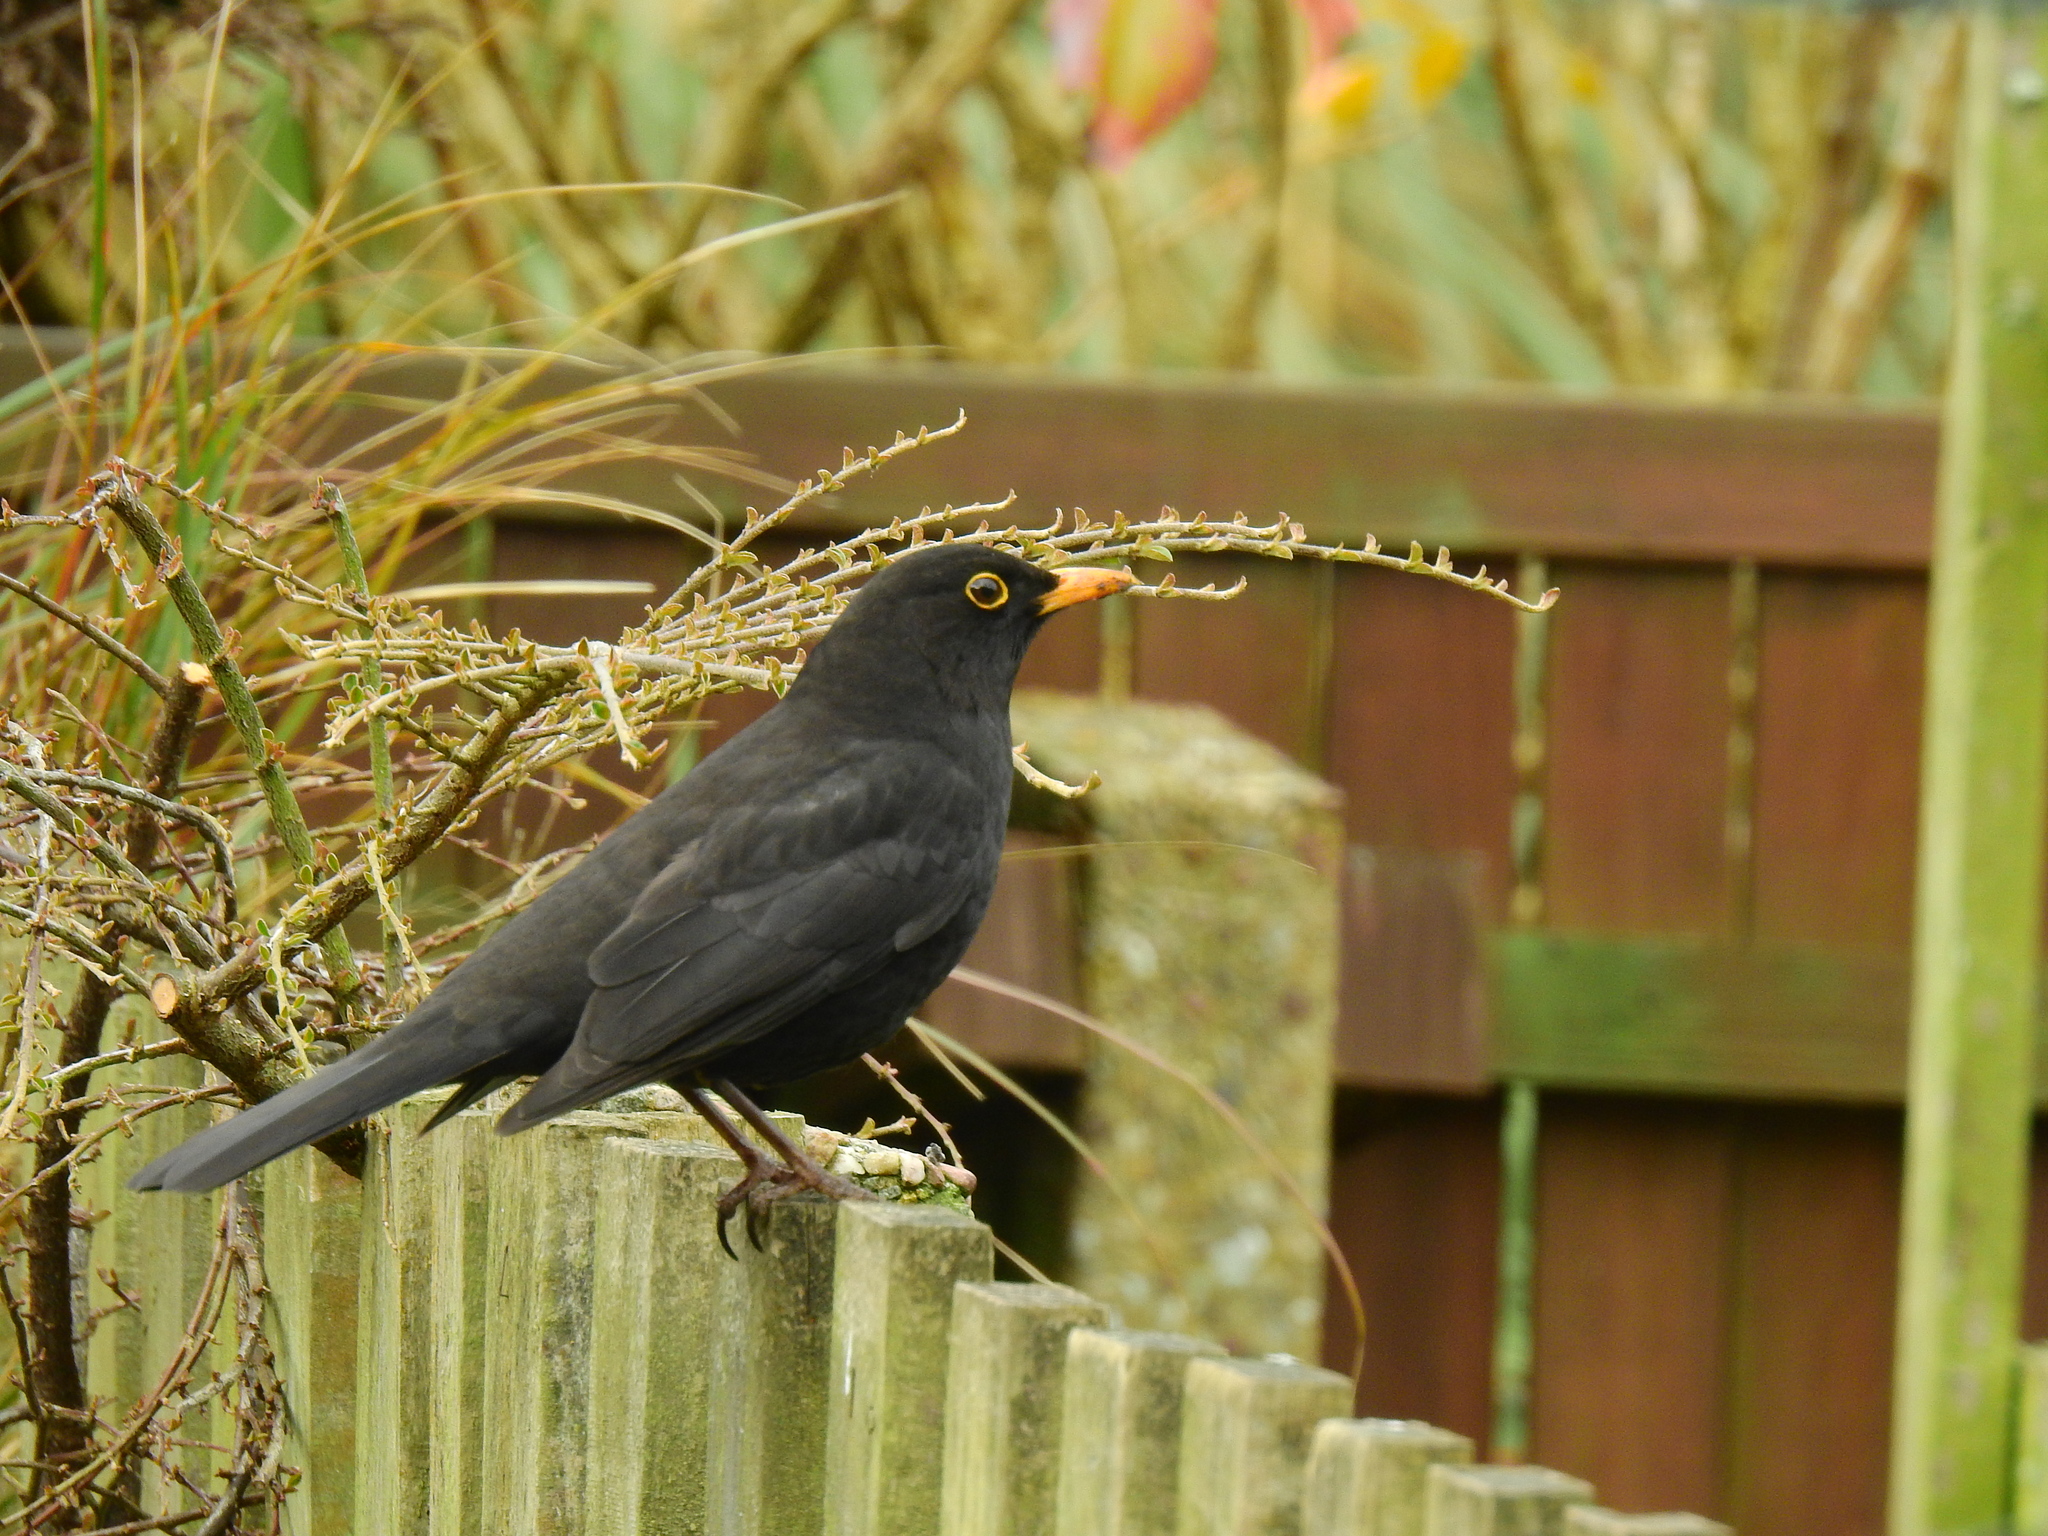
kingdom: Animalia
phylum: Chordata
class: Aves
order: Passeriformes
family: Turdidae
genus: Turdus
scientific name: Turdus merula
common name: Common blackbird
